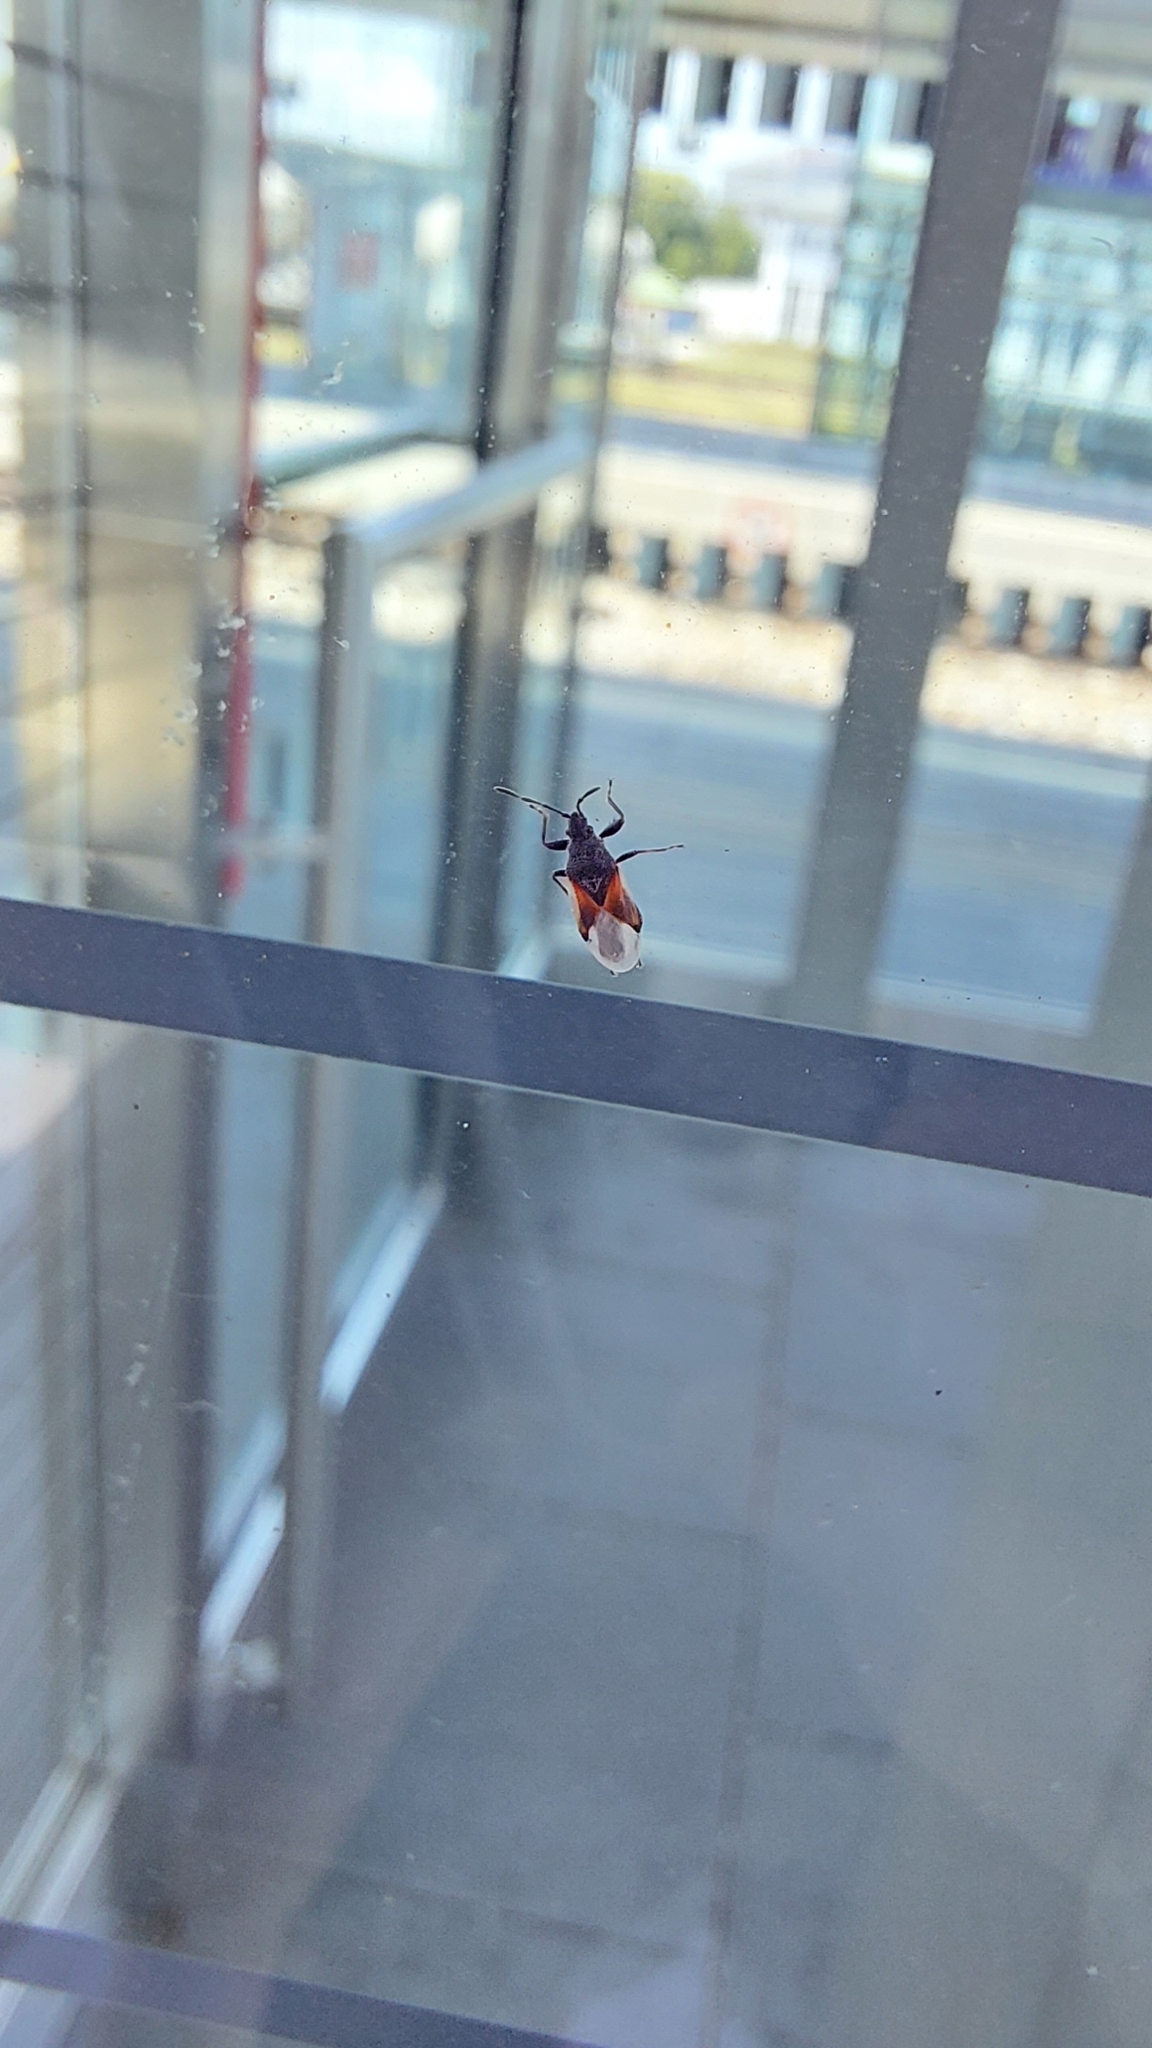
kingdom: Animalia
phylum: Arthropoda
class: Insecta
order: Hemiptera
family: Oxycarenidae
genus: Oxycarenus
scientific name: Oxycarenus lavaterae
